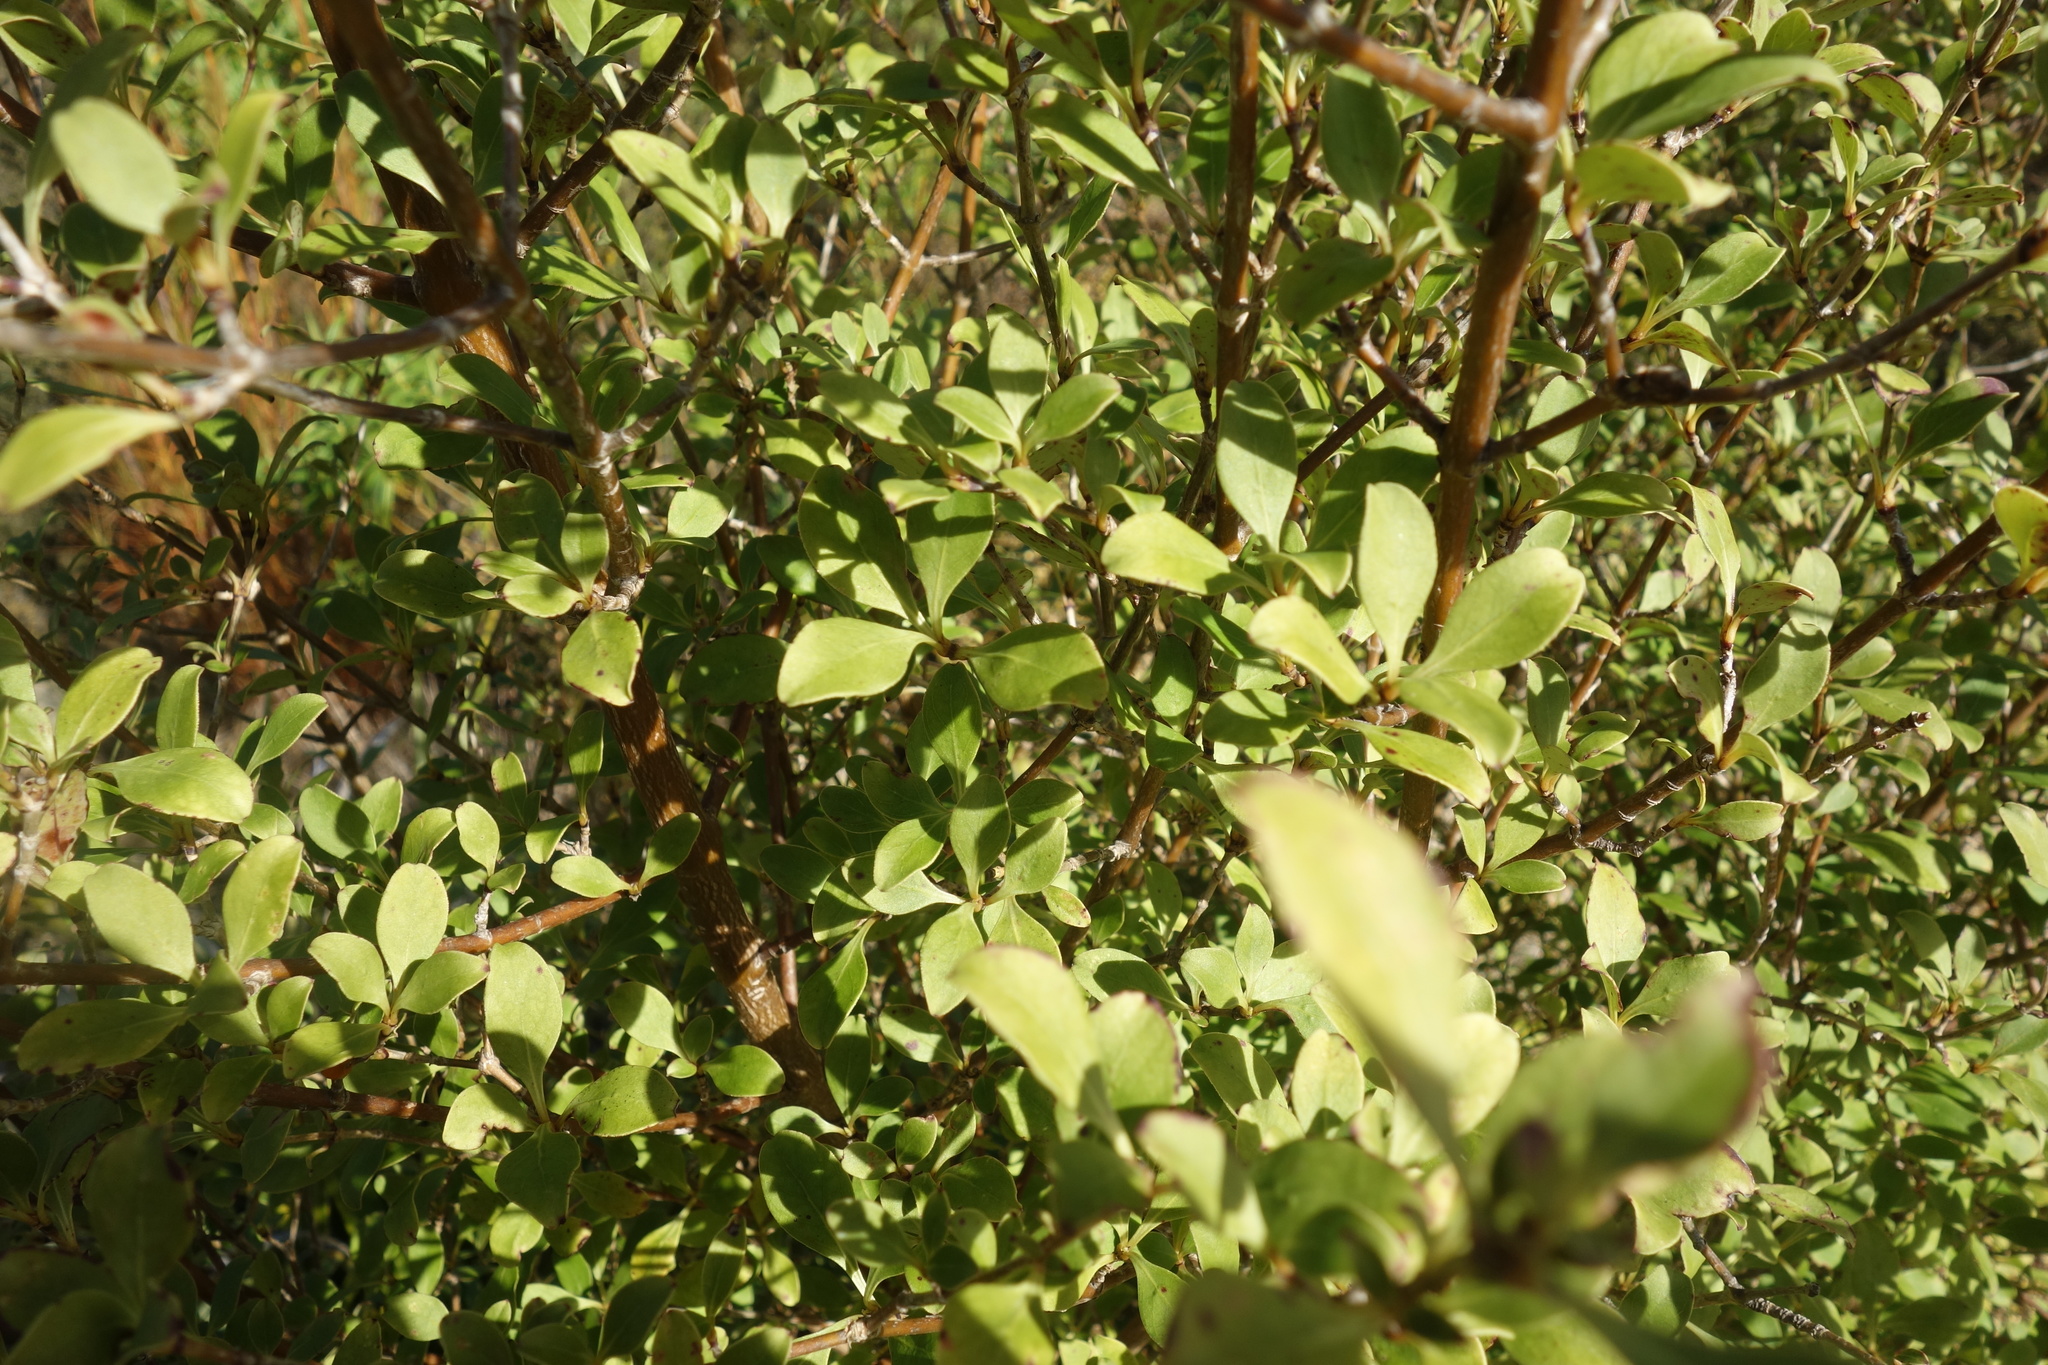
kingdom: Plantae
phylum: Tracheophyta
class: Magnoliopsida
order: Gentianales
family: Rubiaceae
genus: Coprosma
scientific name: Coprosma foetidissima
